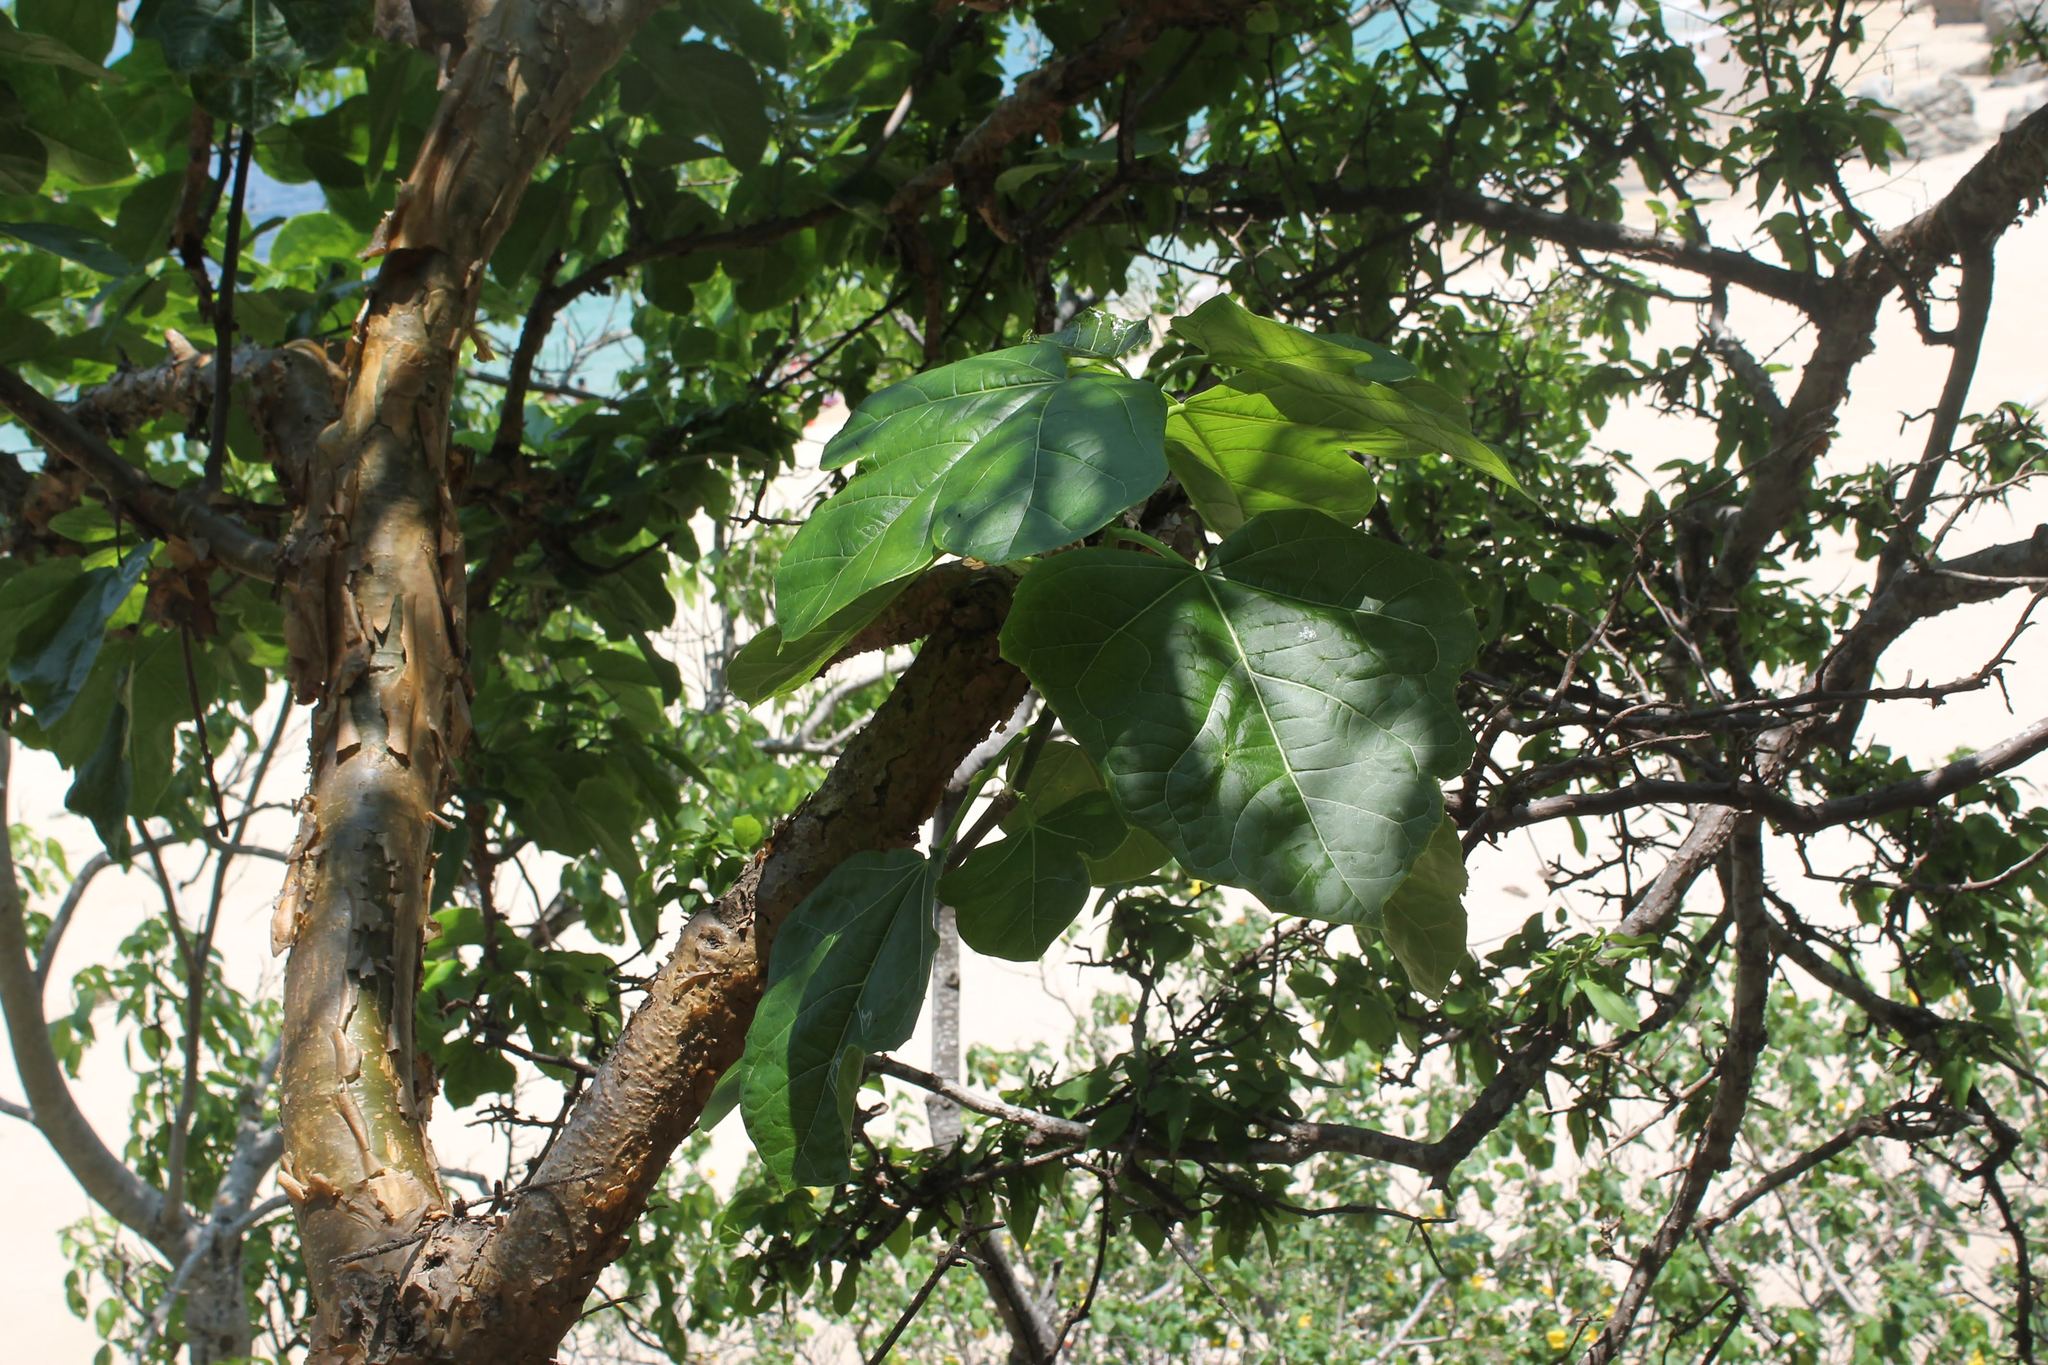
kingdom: Plantae
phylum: Tracheophyta
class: Magnoliopsida
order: Malpighiales
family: Euphorbiaceae
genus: Jatropha
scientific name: Jatropha chamelensis
